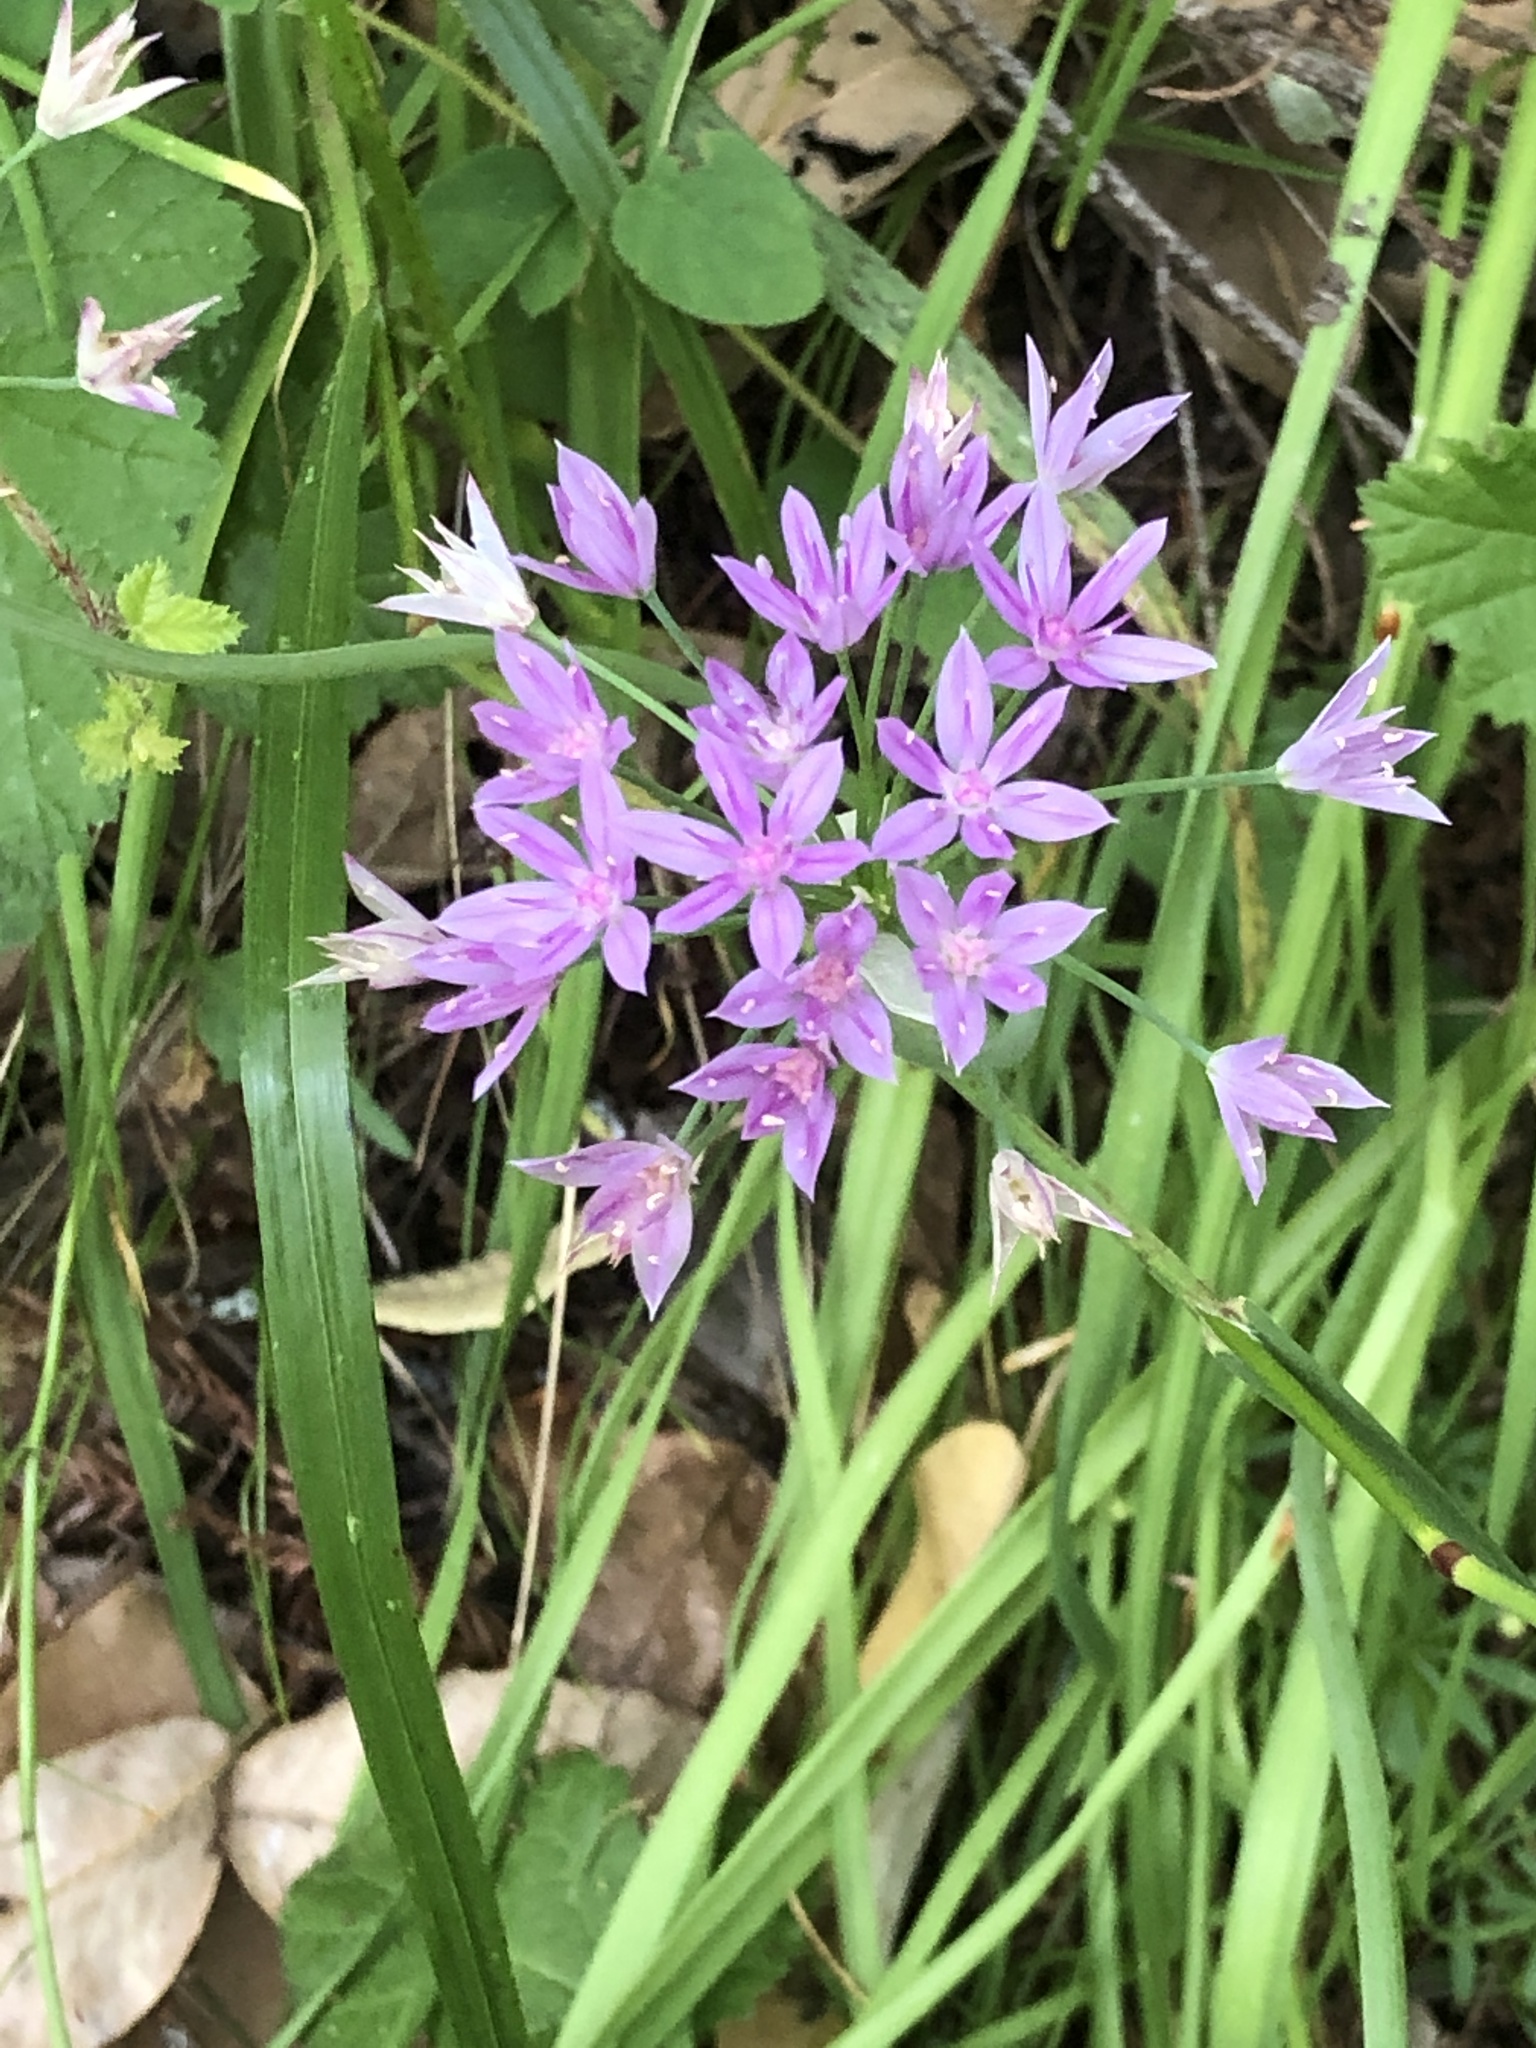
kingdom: Plantae
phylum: Tracheophyta
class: Liliopsida
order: Asparagales
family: Amaryllidaceae
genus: Allium
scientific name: Allium unifolium
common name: American garlic
